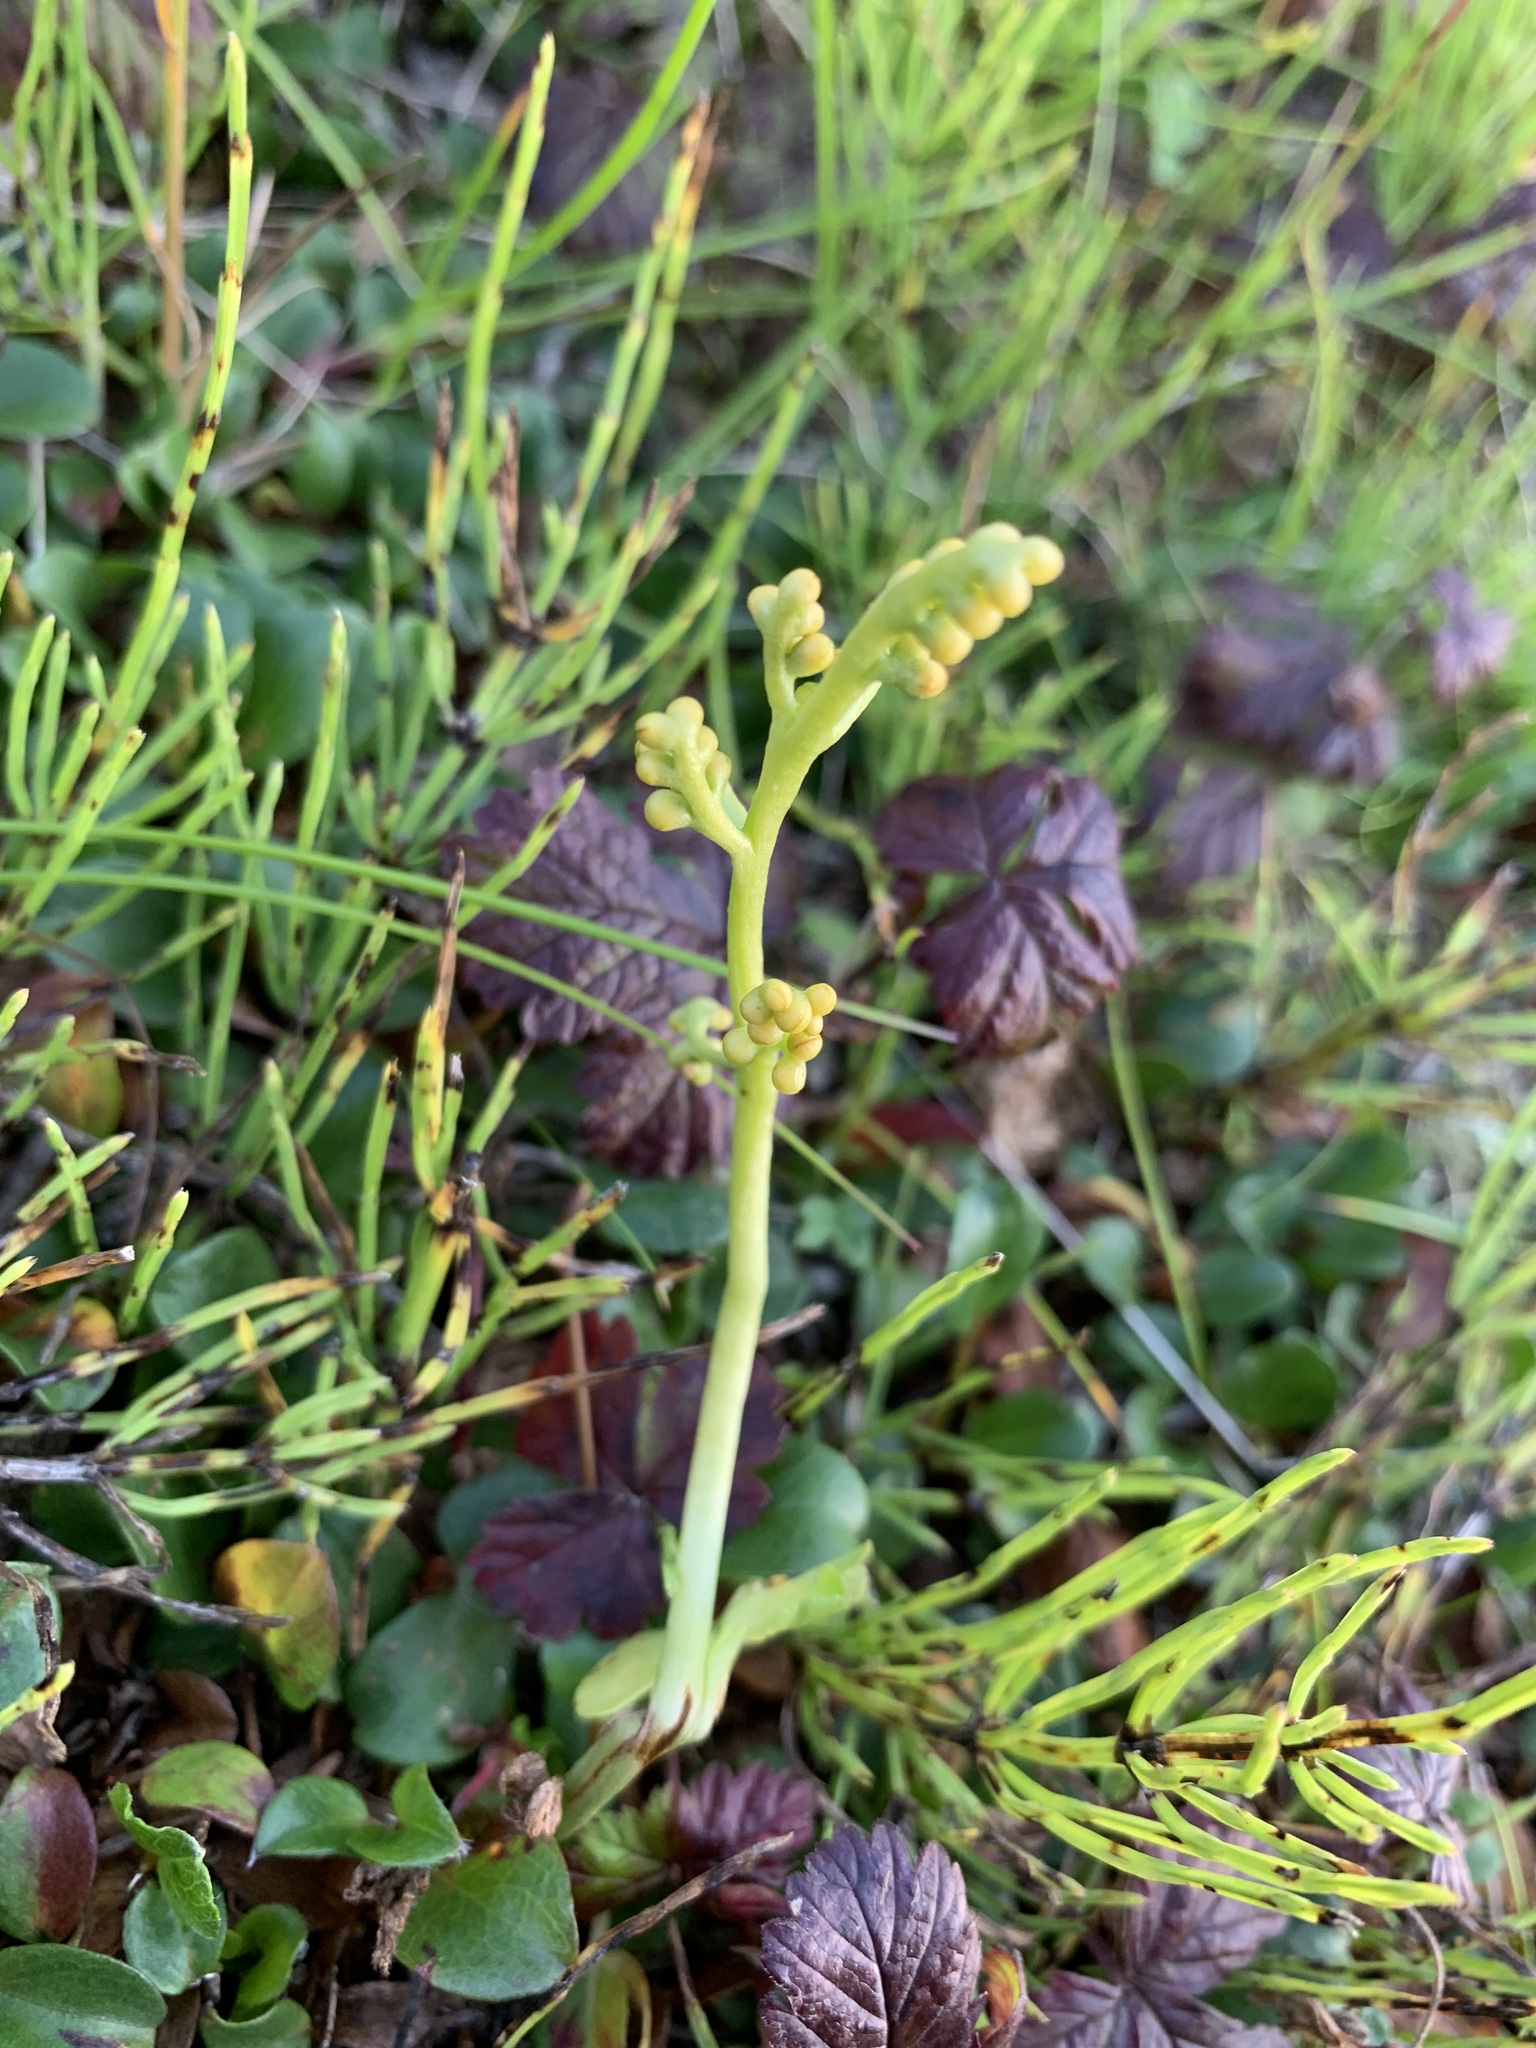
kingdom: Plantae
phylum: Tracheophyta
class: Polypodiopsida
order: Ophioglossales
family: Ophioglossaceae
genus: Botrychium
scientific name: Botrychium lunaria
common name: Moonwort
